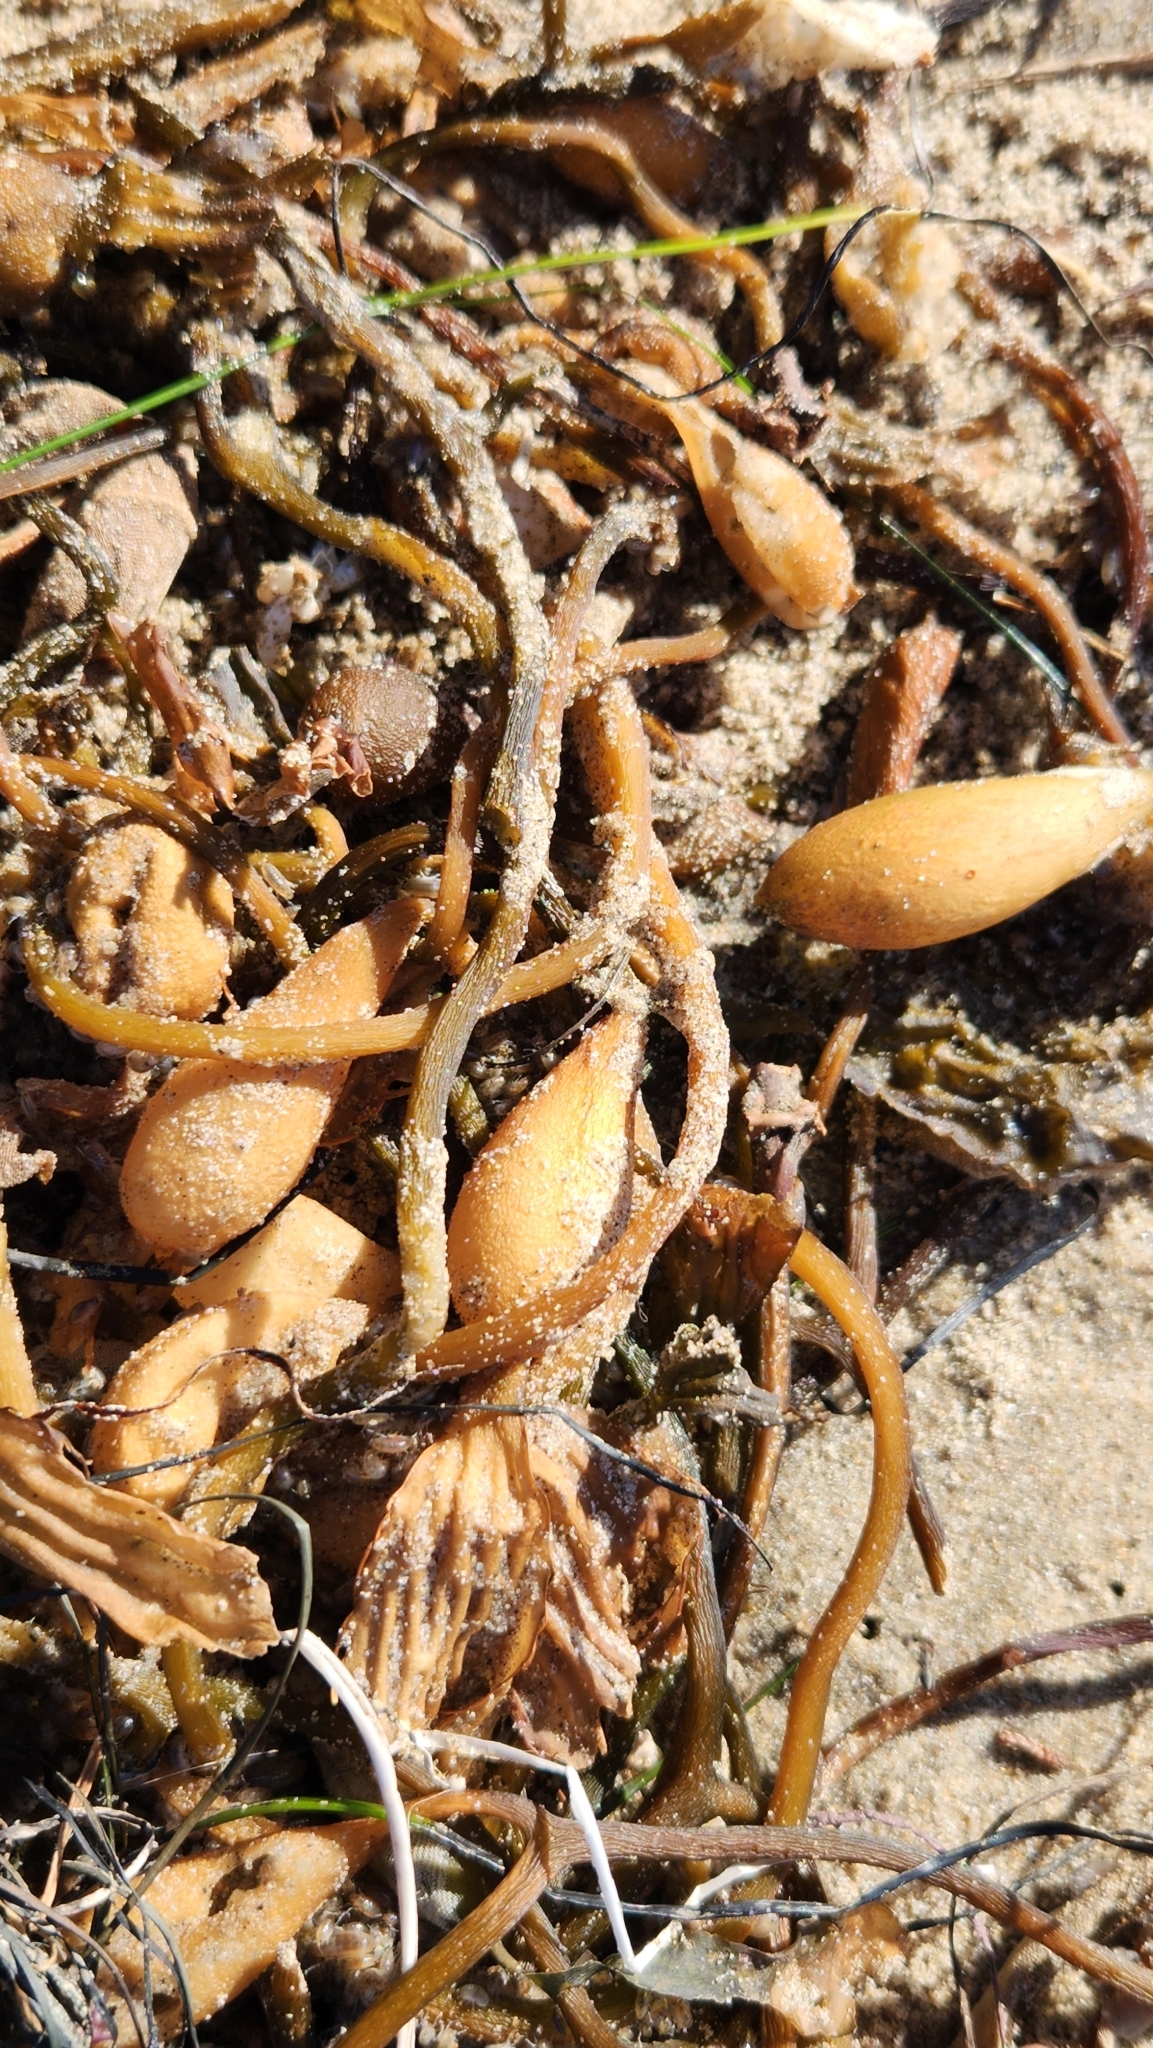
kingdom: Chromista
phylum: Ochrophyta
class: Phaeophyceae
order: Laminariales
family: Laminariaceae
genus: Macrocystis
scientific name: Macrocystis pyrifera
